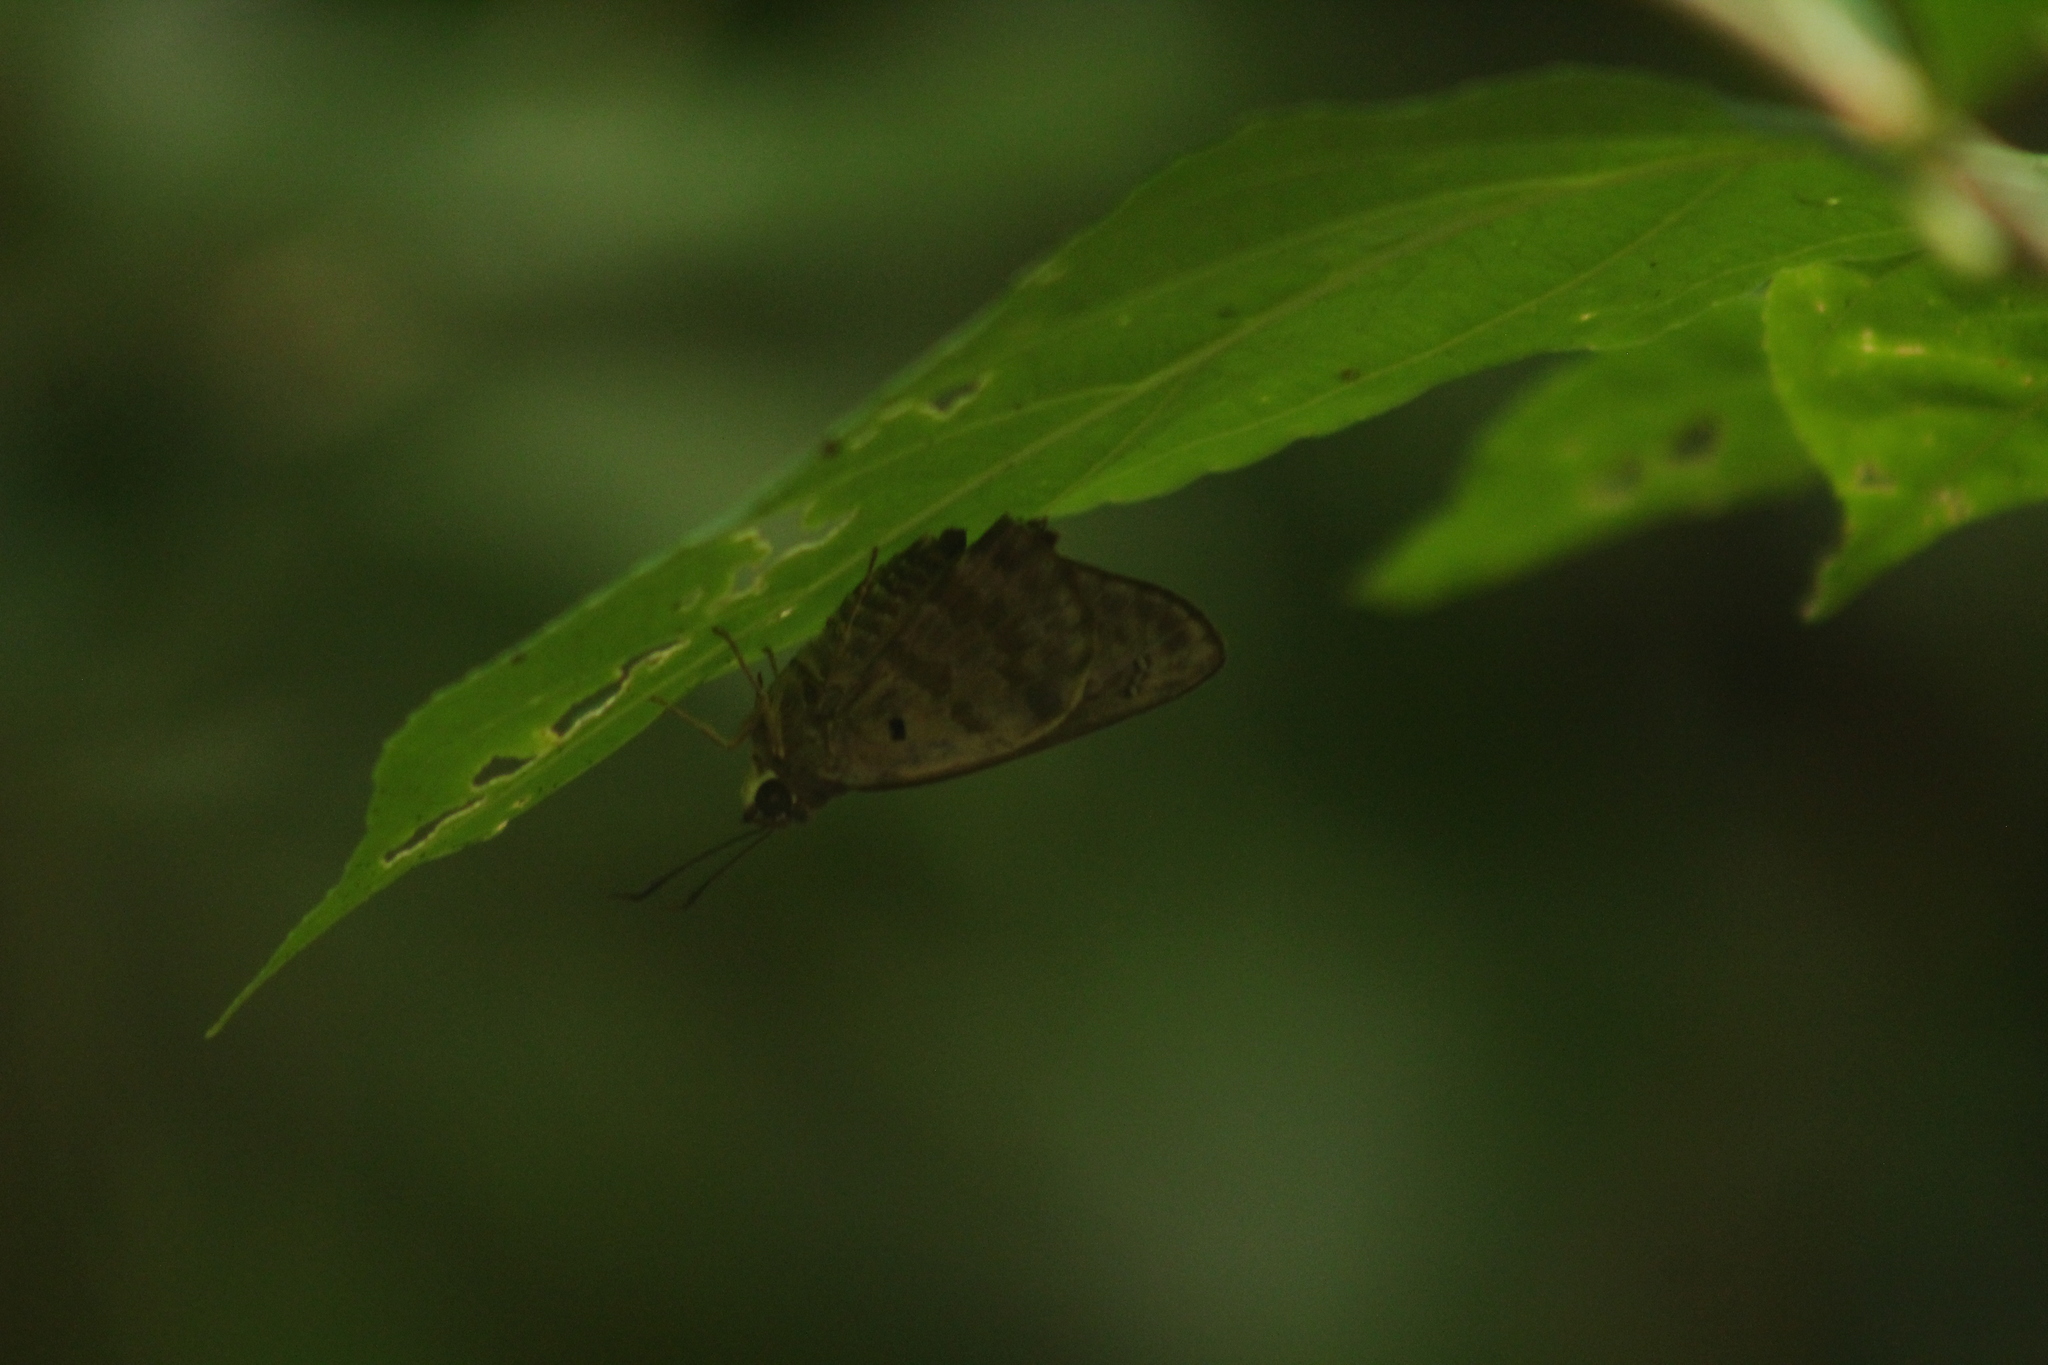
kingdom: Animalia
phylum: Arthropoda
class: Insecta
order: Lepidoptera
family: Hesperiidae
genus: Polygonus
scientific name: Polygonus leo
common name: Hammoch skipper
